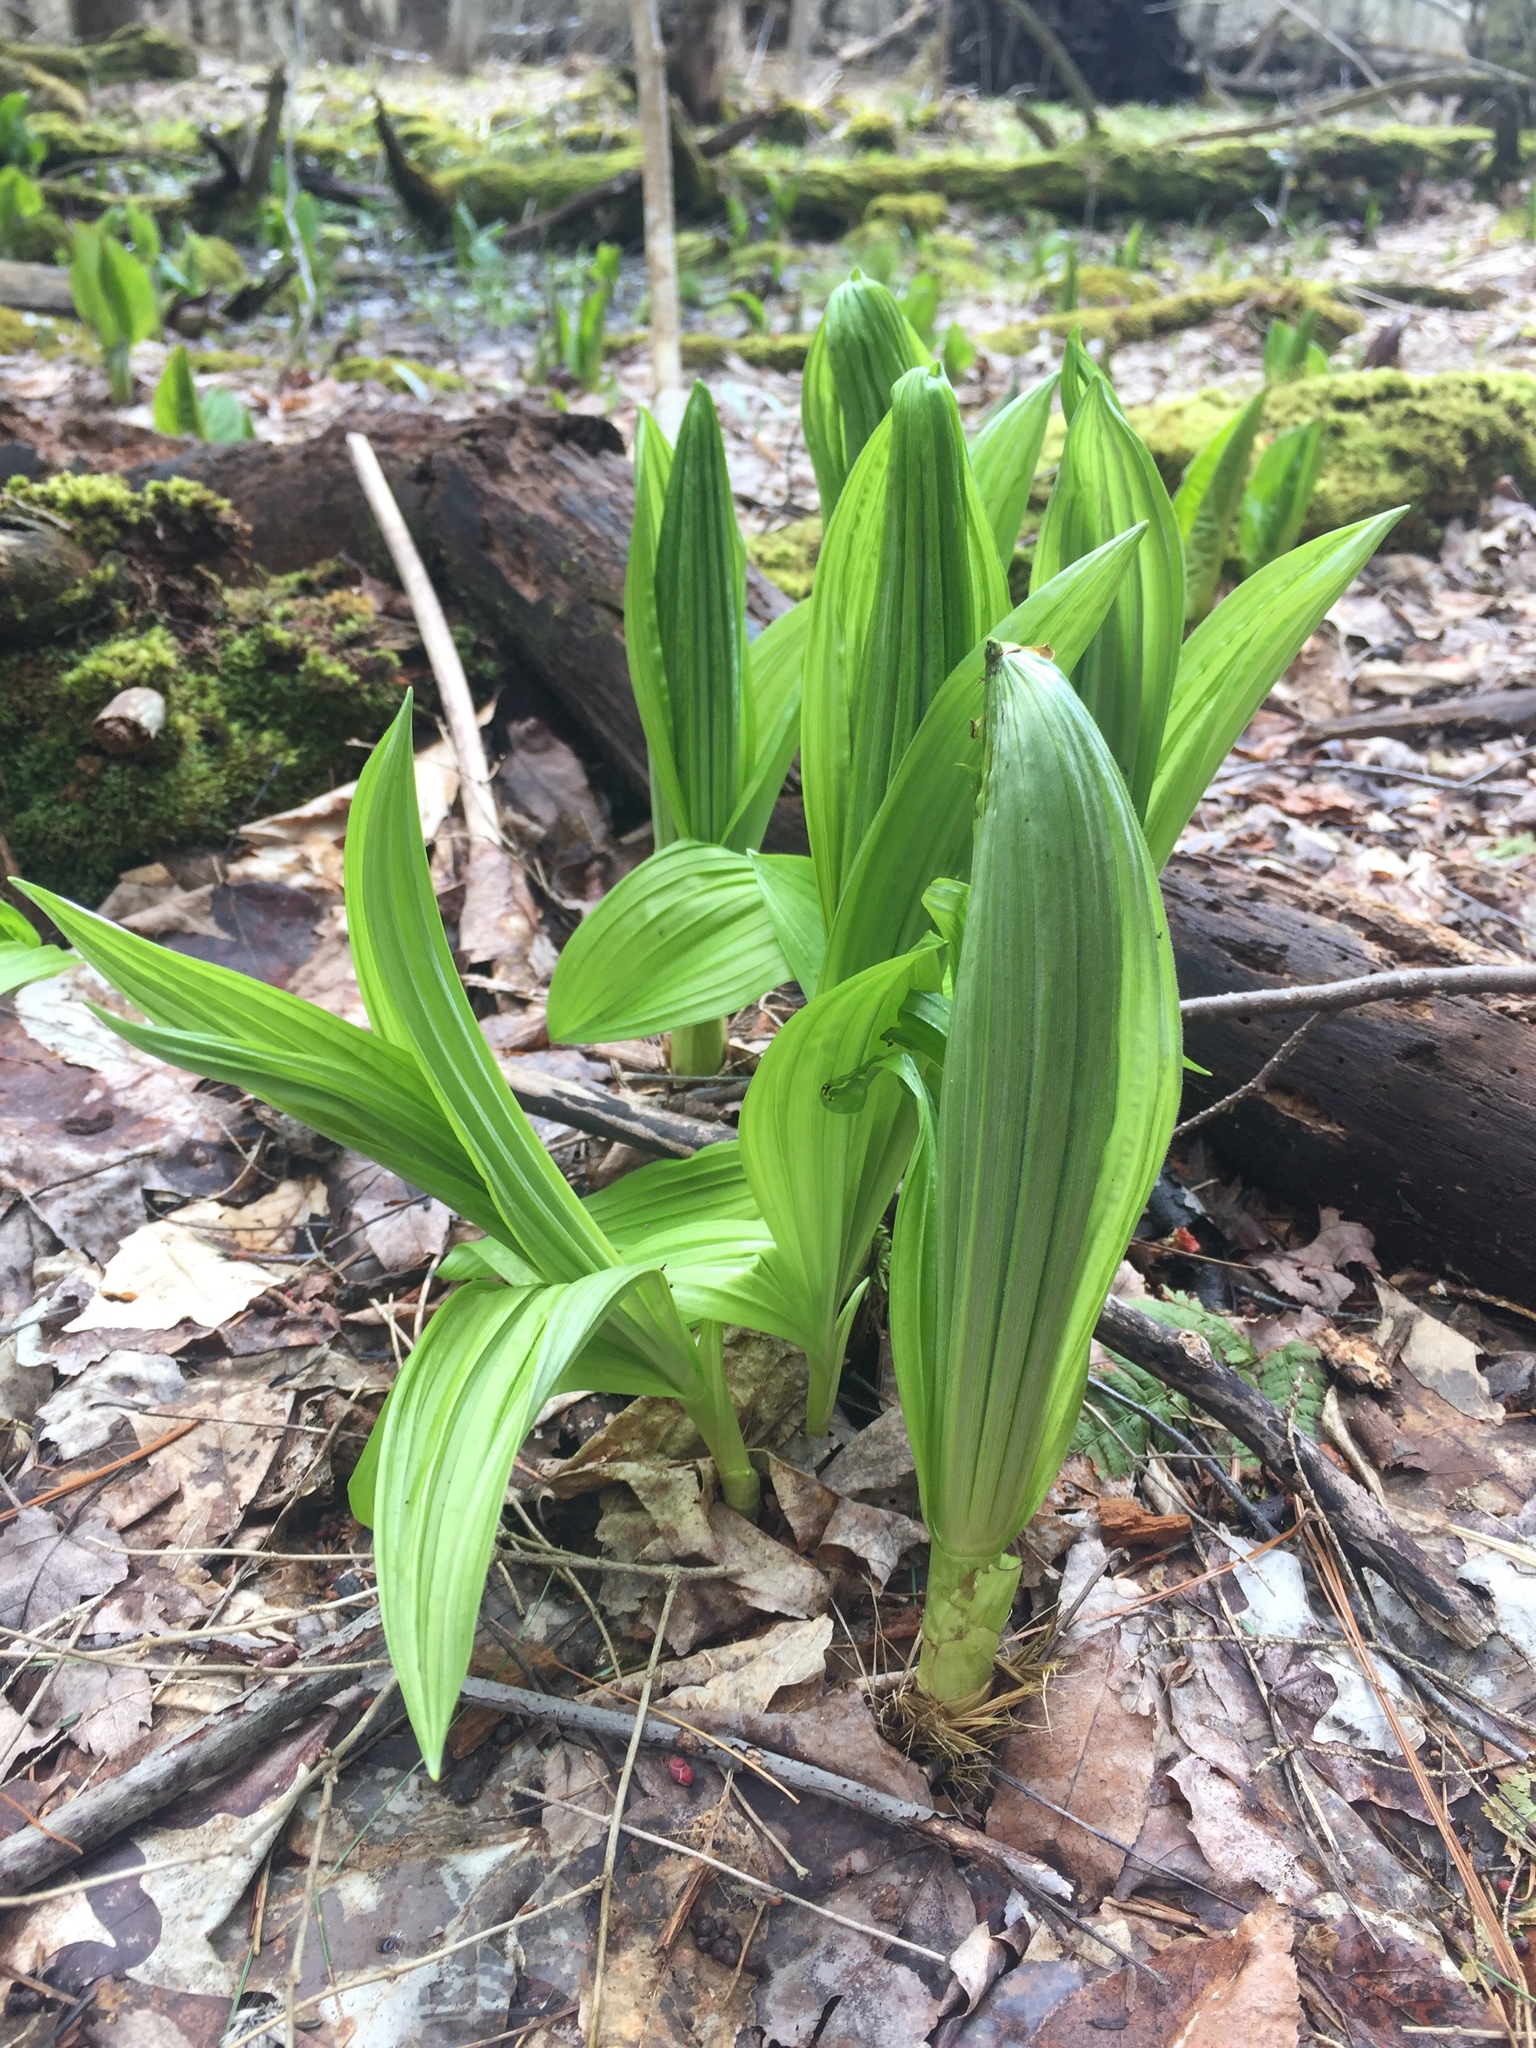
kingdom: Plantae
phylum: Tracheophyta
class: Liliopsida
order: Liliales
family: Melanthiaceae
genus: Veratrum
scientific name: Veratrum viride
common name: American false hellebore
